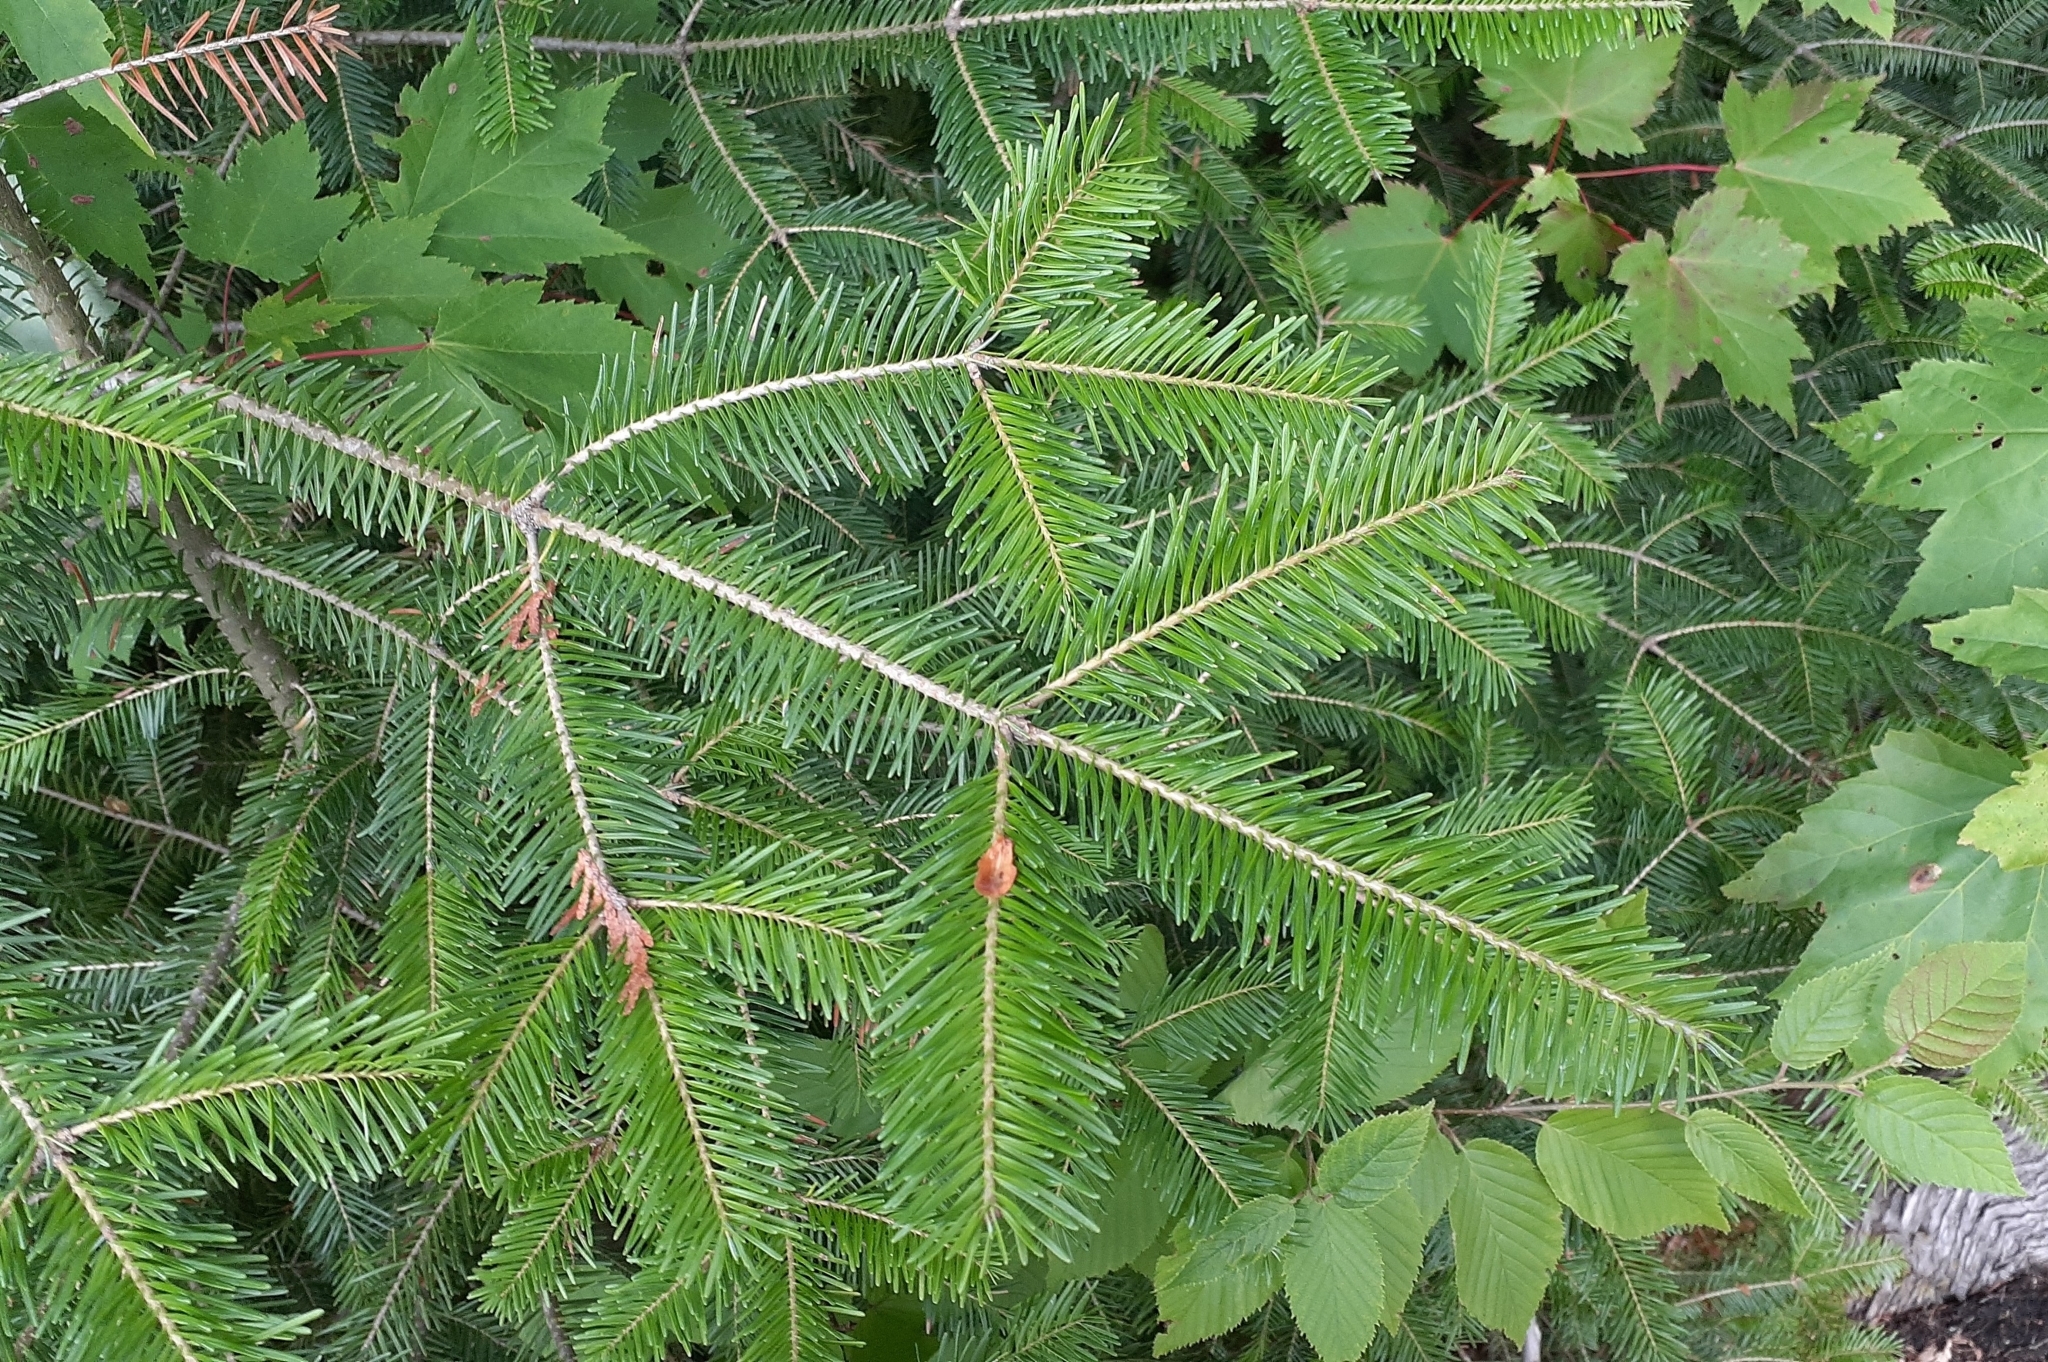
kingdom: Plantae
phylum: Tracheophyta
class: Pinopsida
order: Pinales
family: Pinaceae
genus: Abies
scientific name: Abies balsamea
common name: Balsam fir
